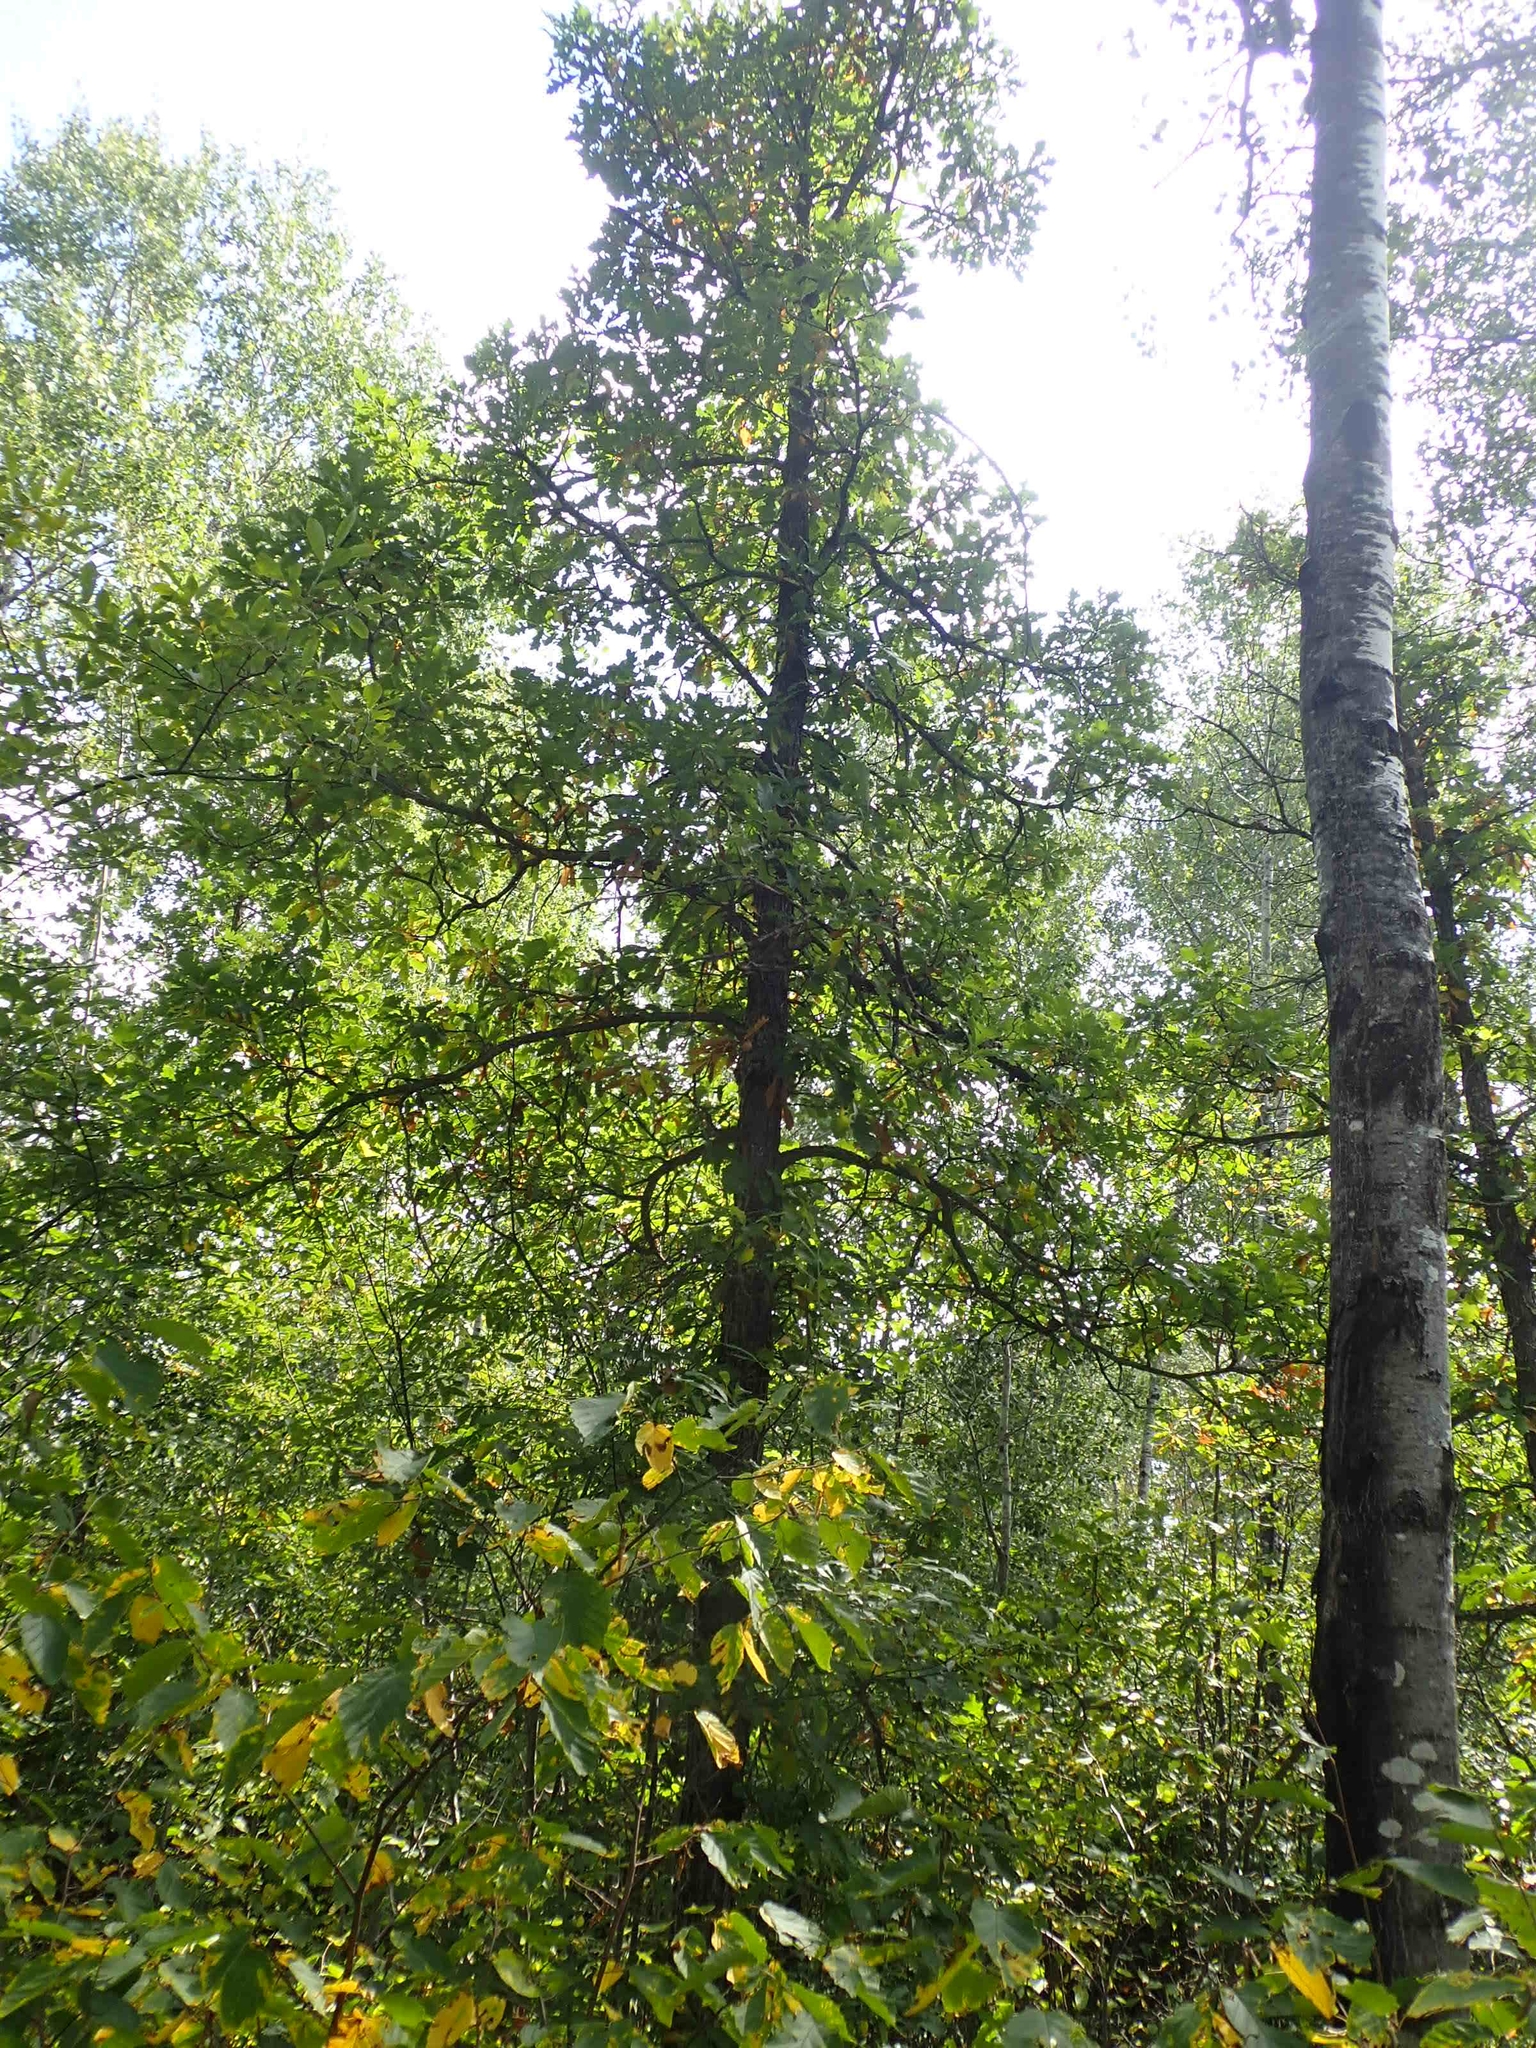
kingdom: Plantae
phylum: Tracheophyta
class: Magnoliopsida
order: Fagales
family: Fagaceae
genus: Quercus
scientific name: Quercus macrocarpa
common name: Bur oak
